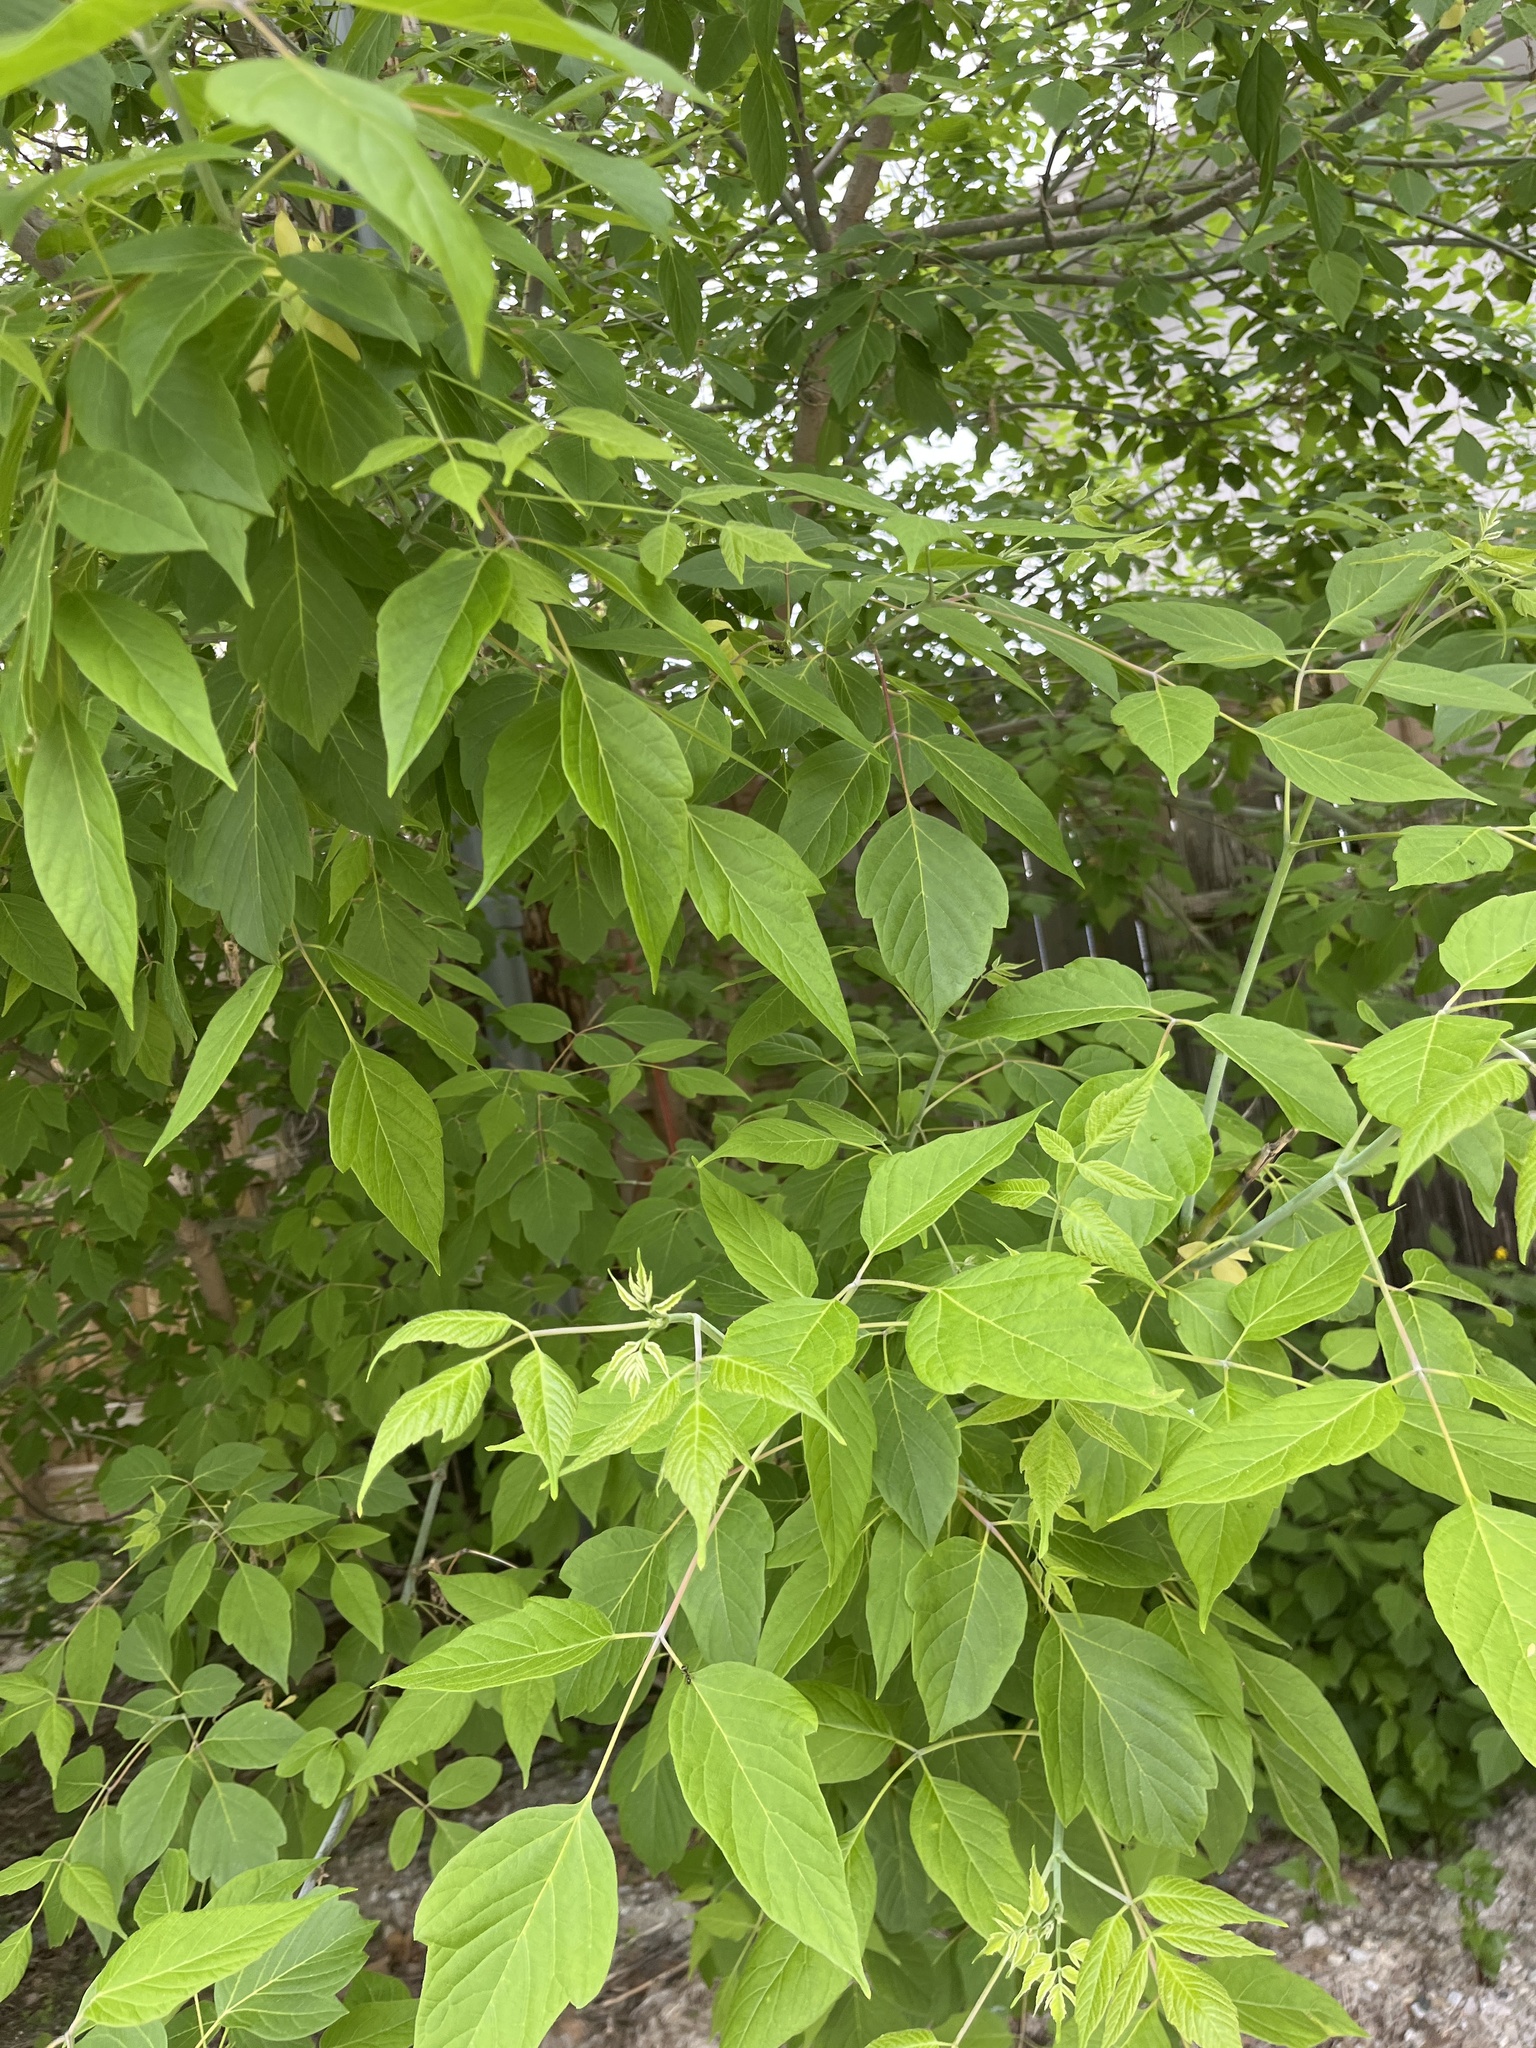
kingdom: Plantae
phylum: Tracheophyta
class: Magnoliopsida
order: Sapindales
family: Sapindaceae
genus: Acer
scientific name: Acer negundo
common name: Ashleaf maple
